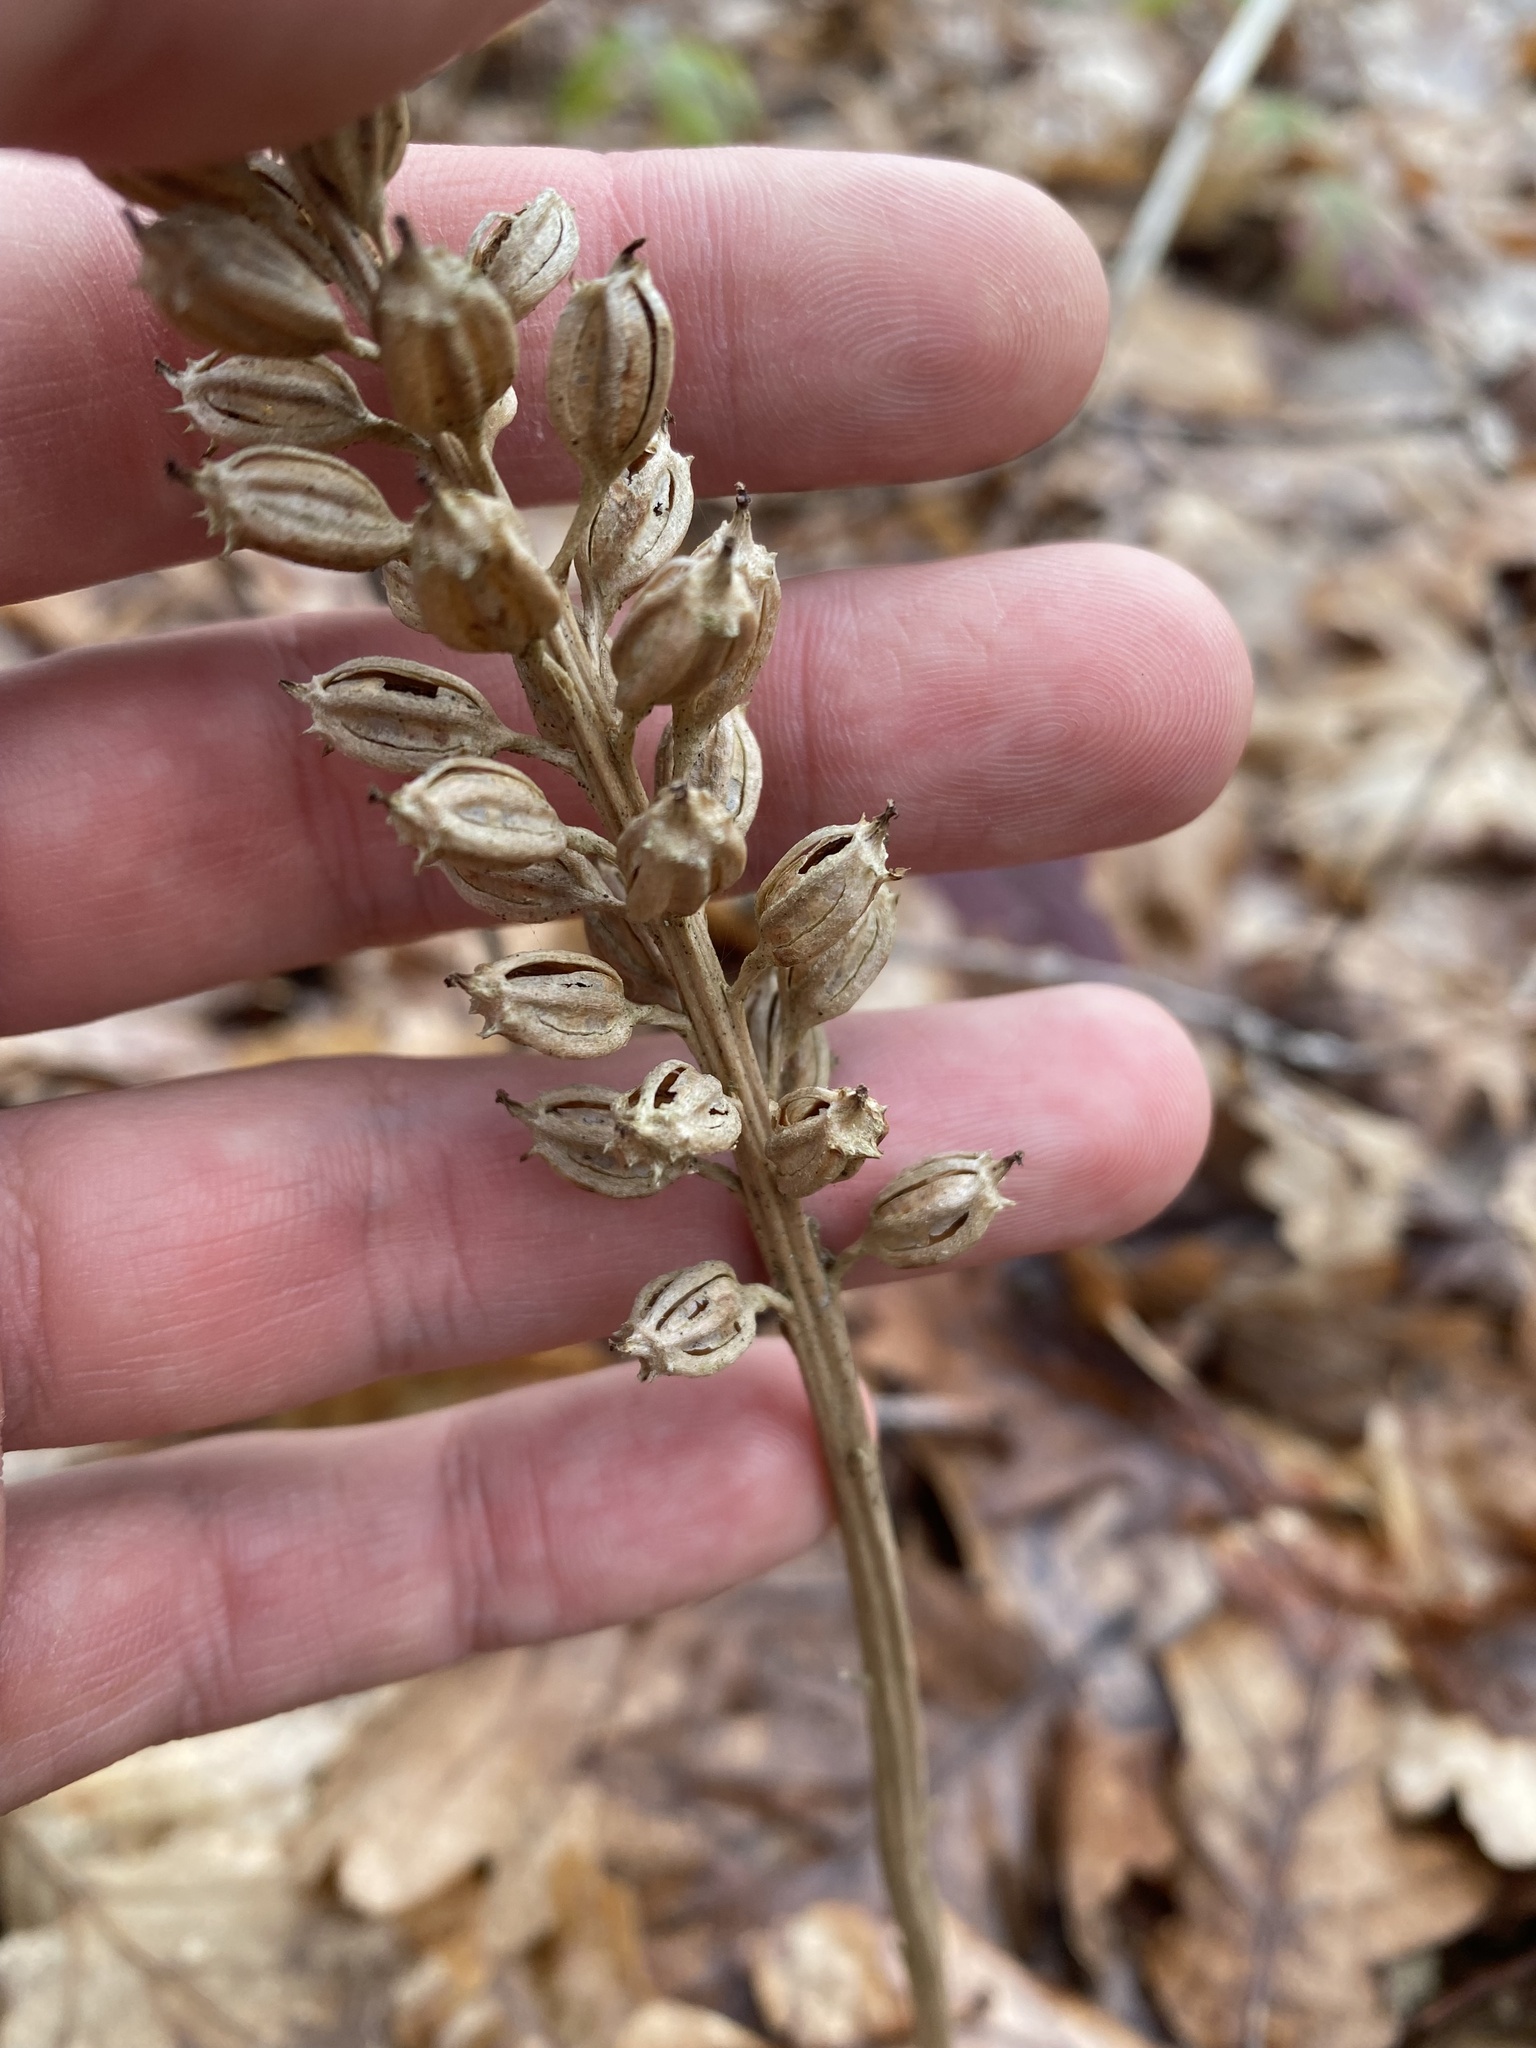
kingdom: Plantae
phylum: Tracheophyta
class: Liliopsida
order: Asparagales
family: Orchidaceae
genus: Neottia
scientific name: Neottia nidus-avis
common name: Bird's-nest orchid
